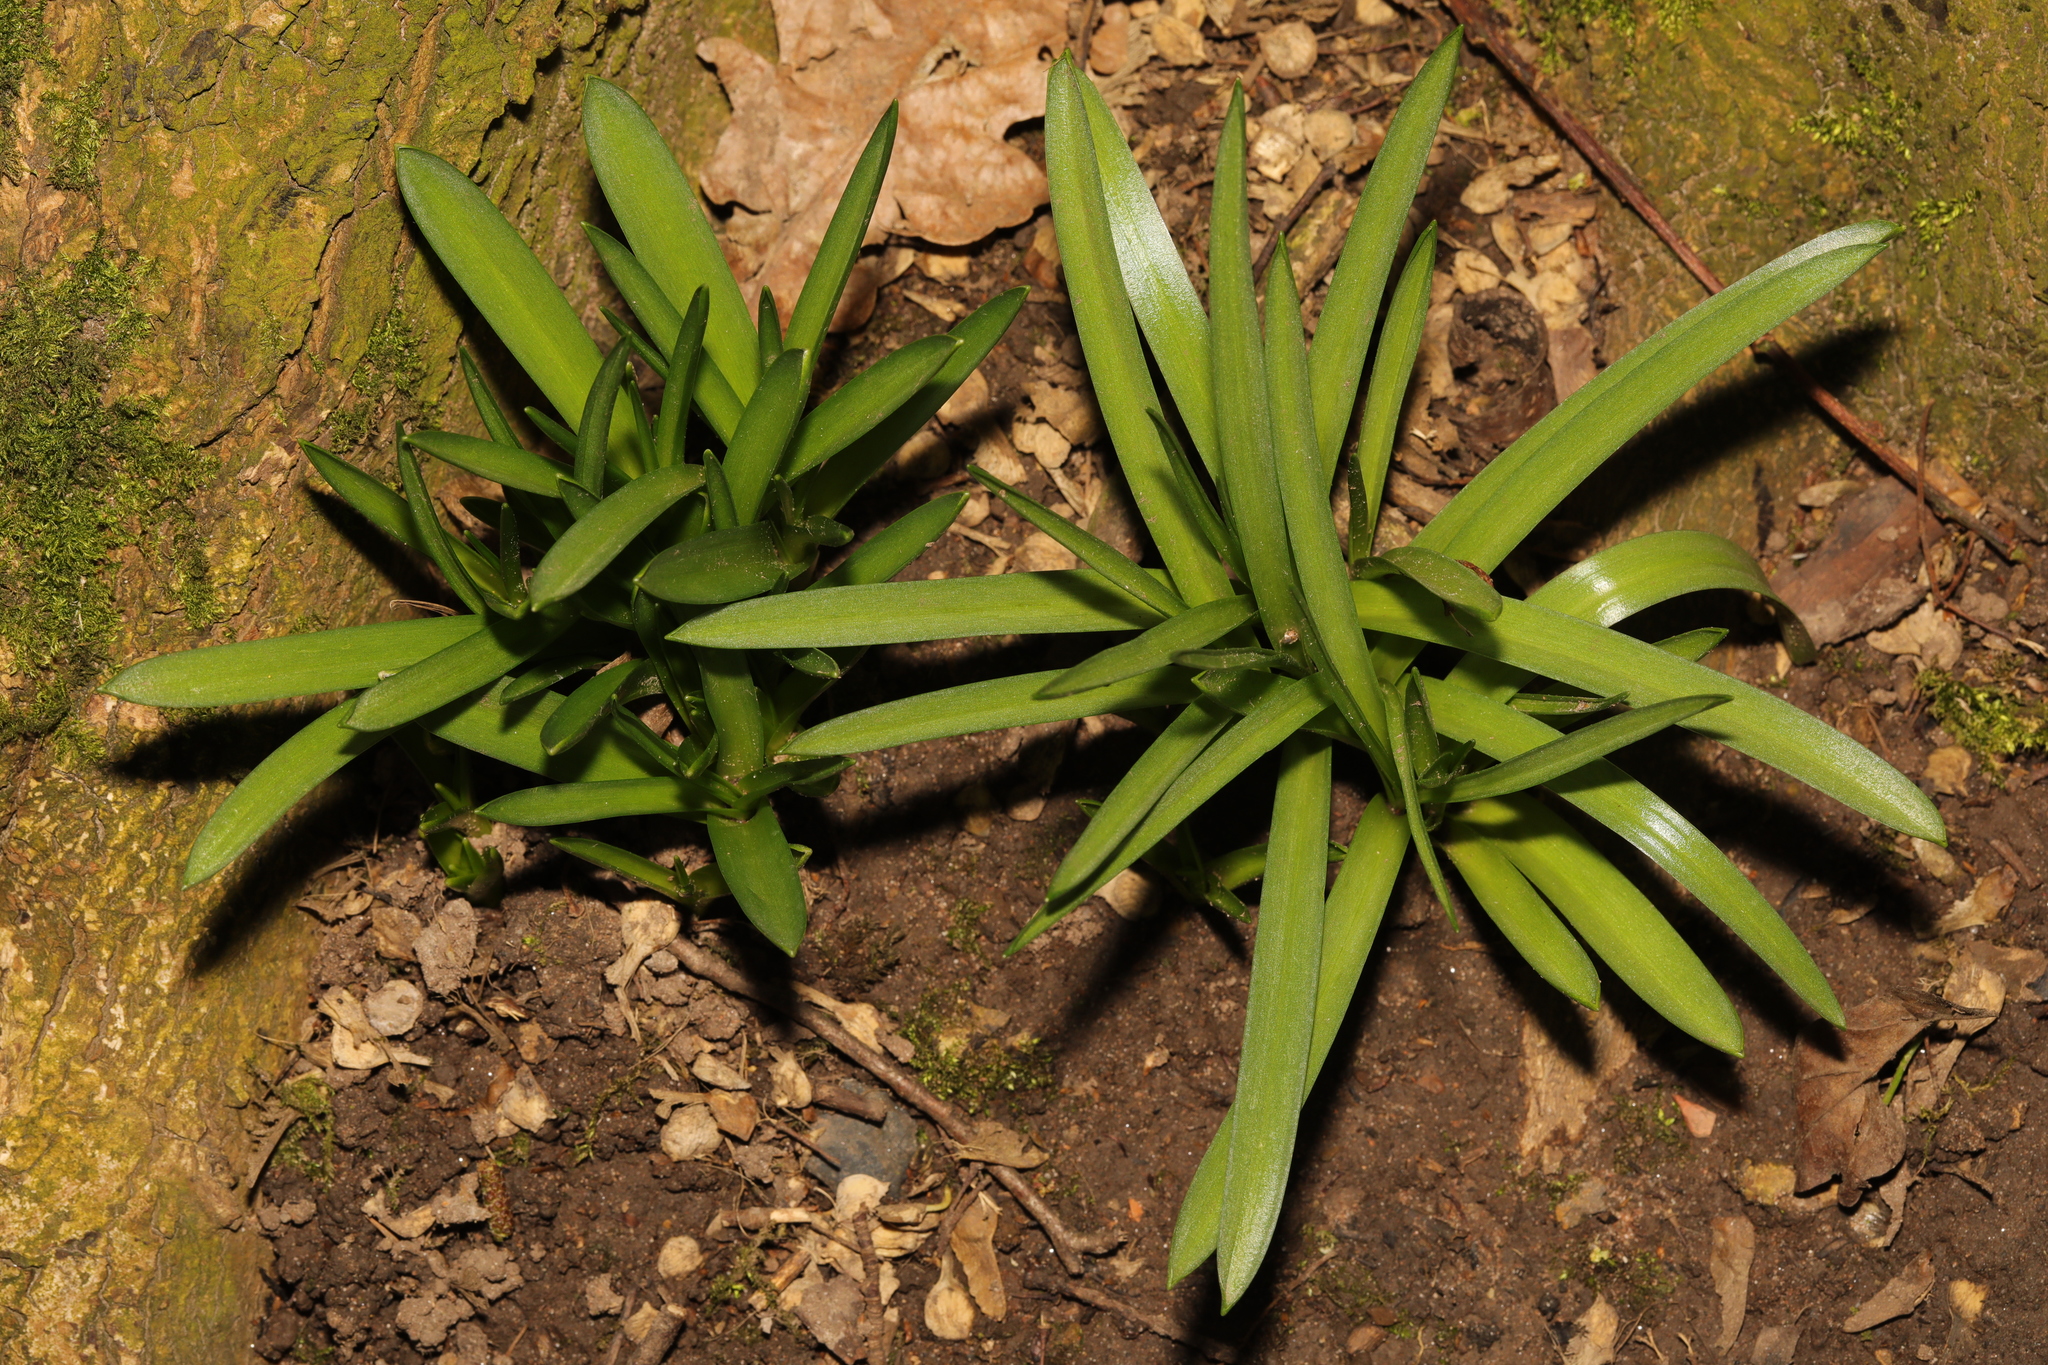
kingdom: Plantae
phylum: Tracheophyta
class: Liliopsida
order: Asparagales
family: Asparagaceae
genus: Hyacinthoides
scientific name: Hyacinthoides non-scripta
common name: Bluebell
